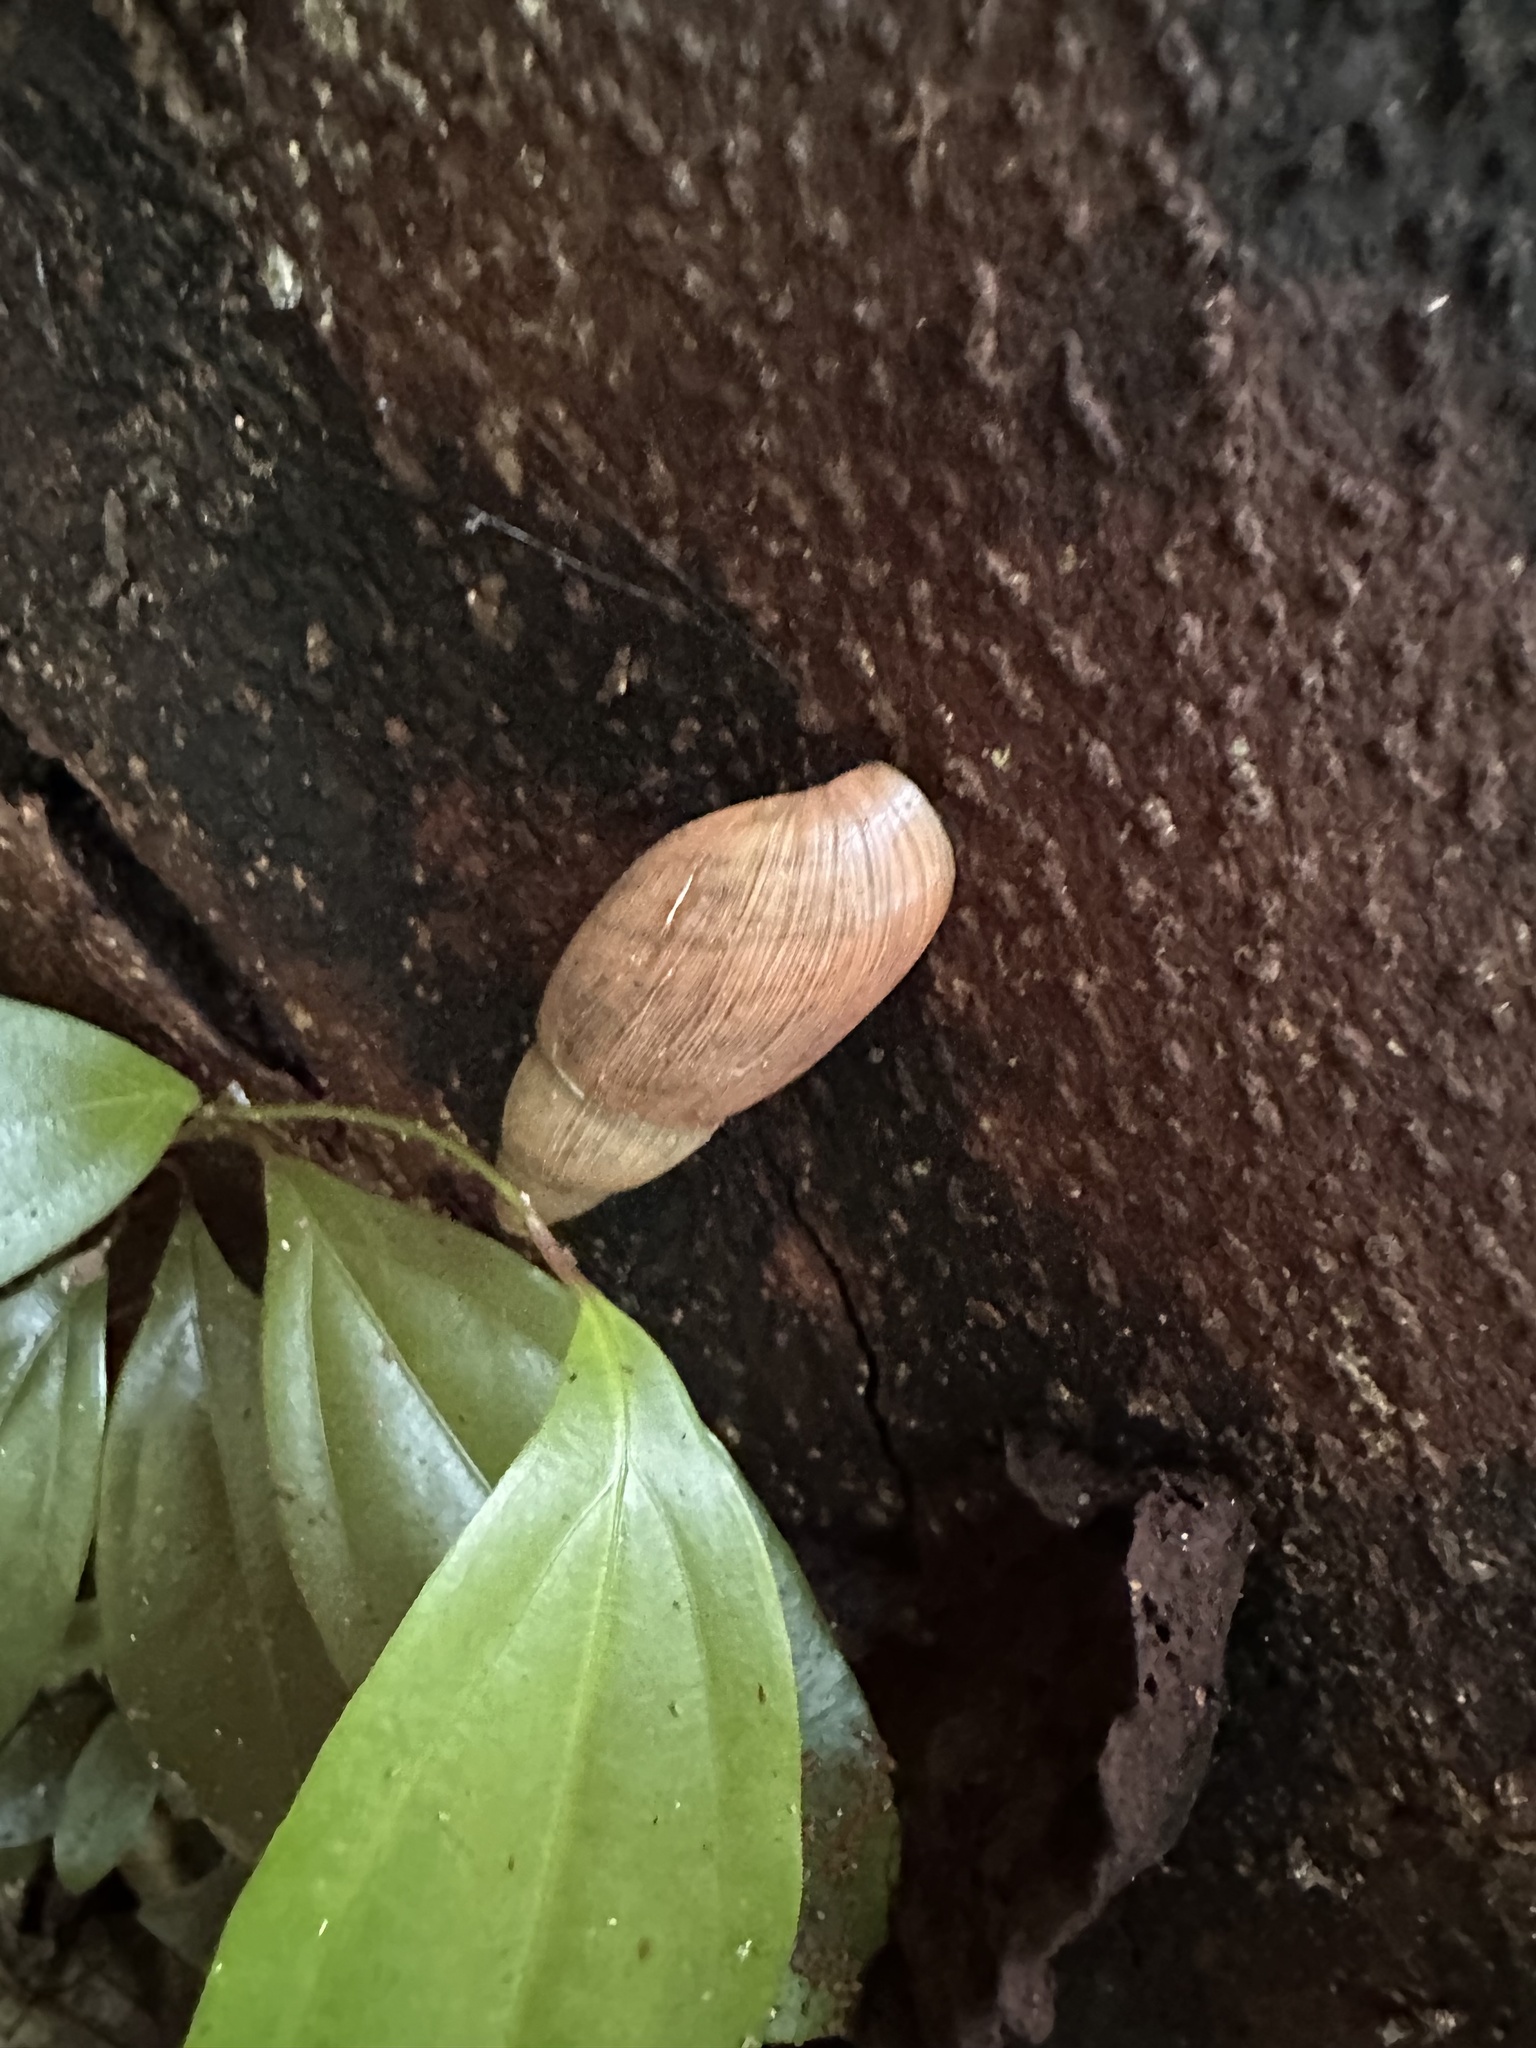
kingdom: Animalia
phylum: Mollusca
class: Gastropoda
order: Stylommatophora
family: Spiraxidae
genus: Euglandina
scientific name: Euglandina rosea
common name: Rosy wolfsnail
